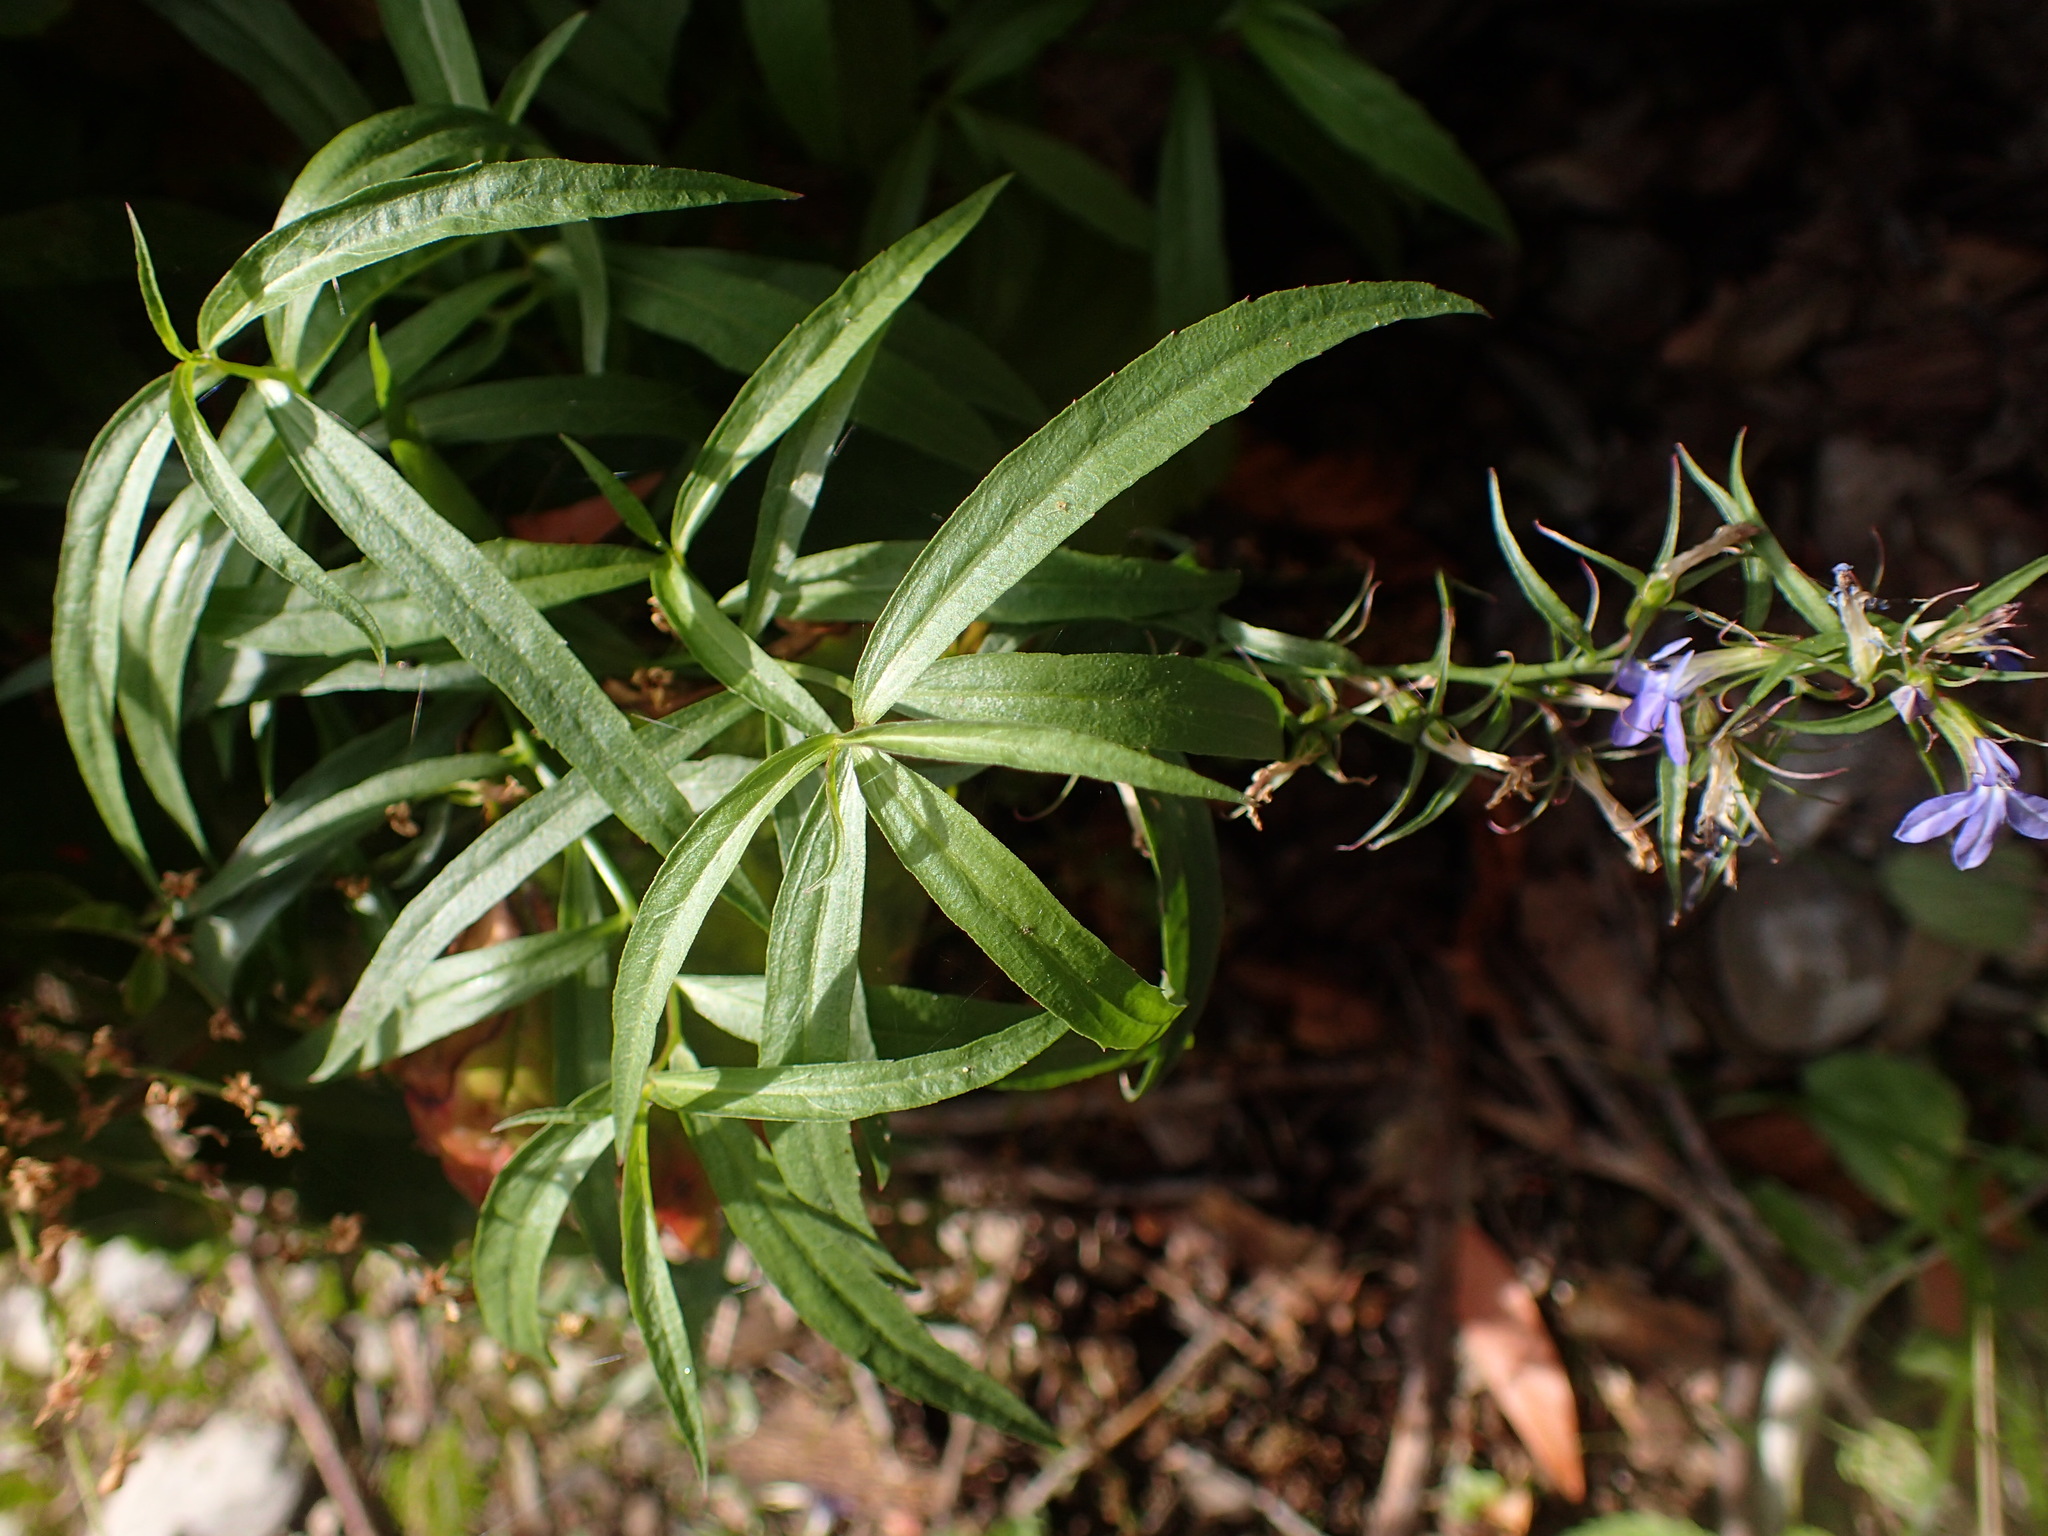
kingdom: Plantae
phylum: Tracheophyta
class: Magnoliopsida
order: Asterales
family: Campanulaceae
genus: Palmerella
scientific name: Palmerella debilis
